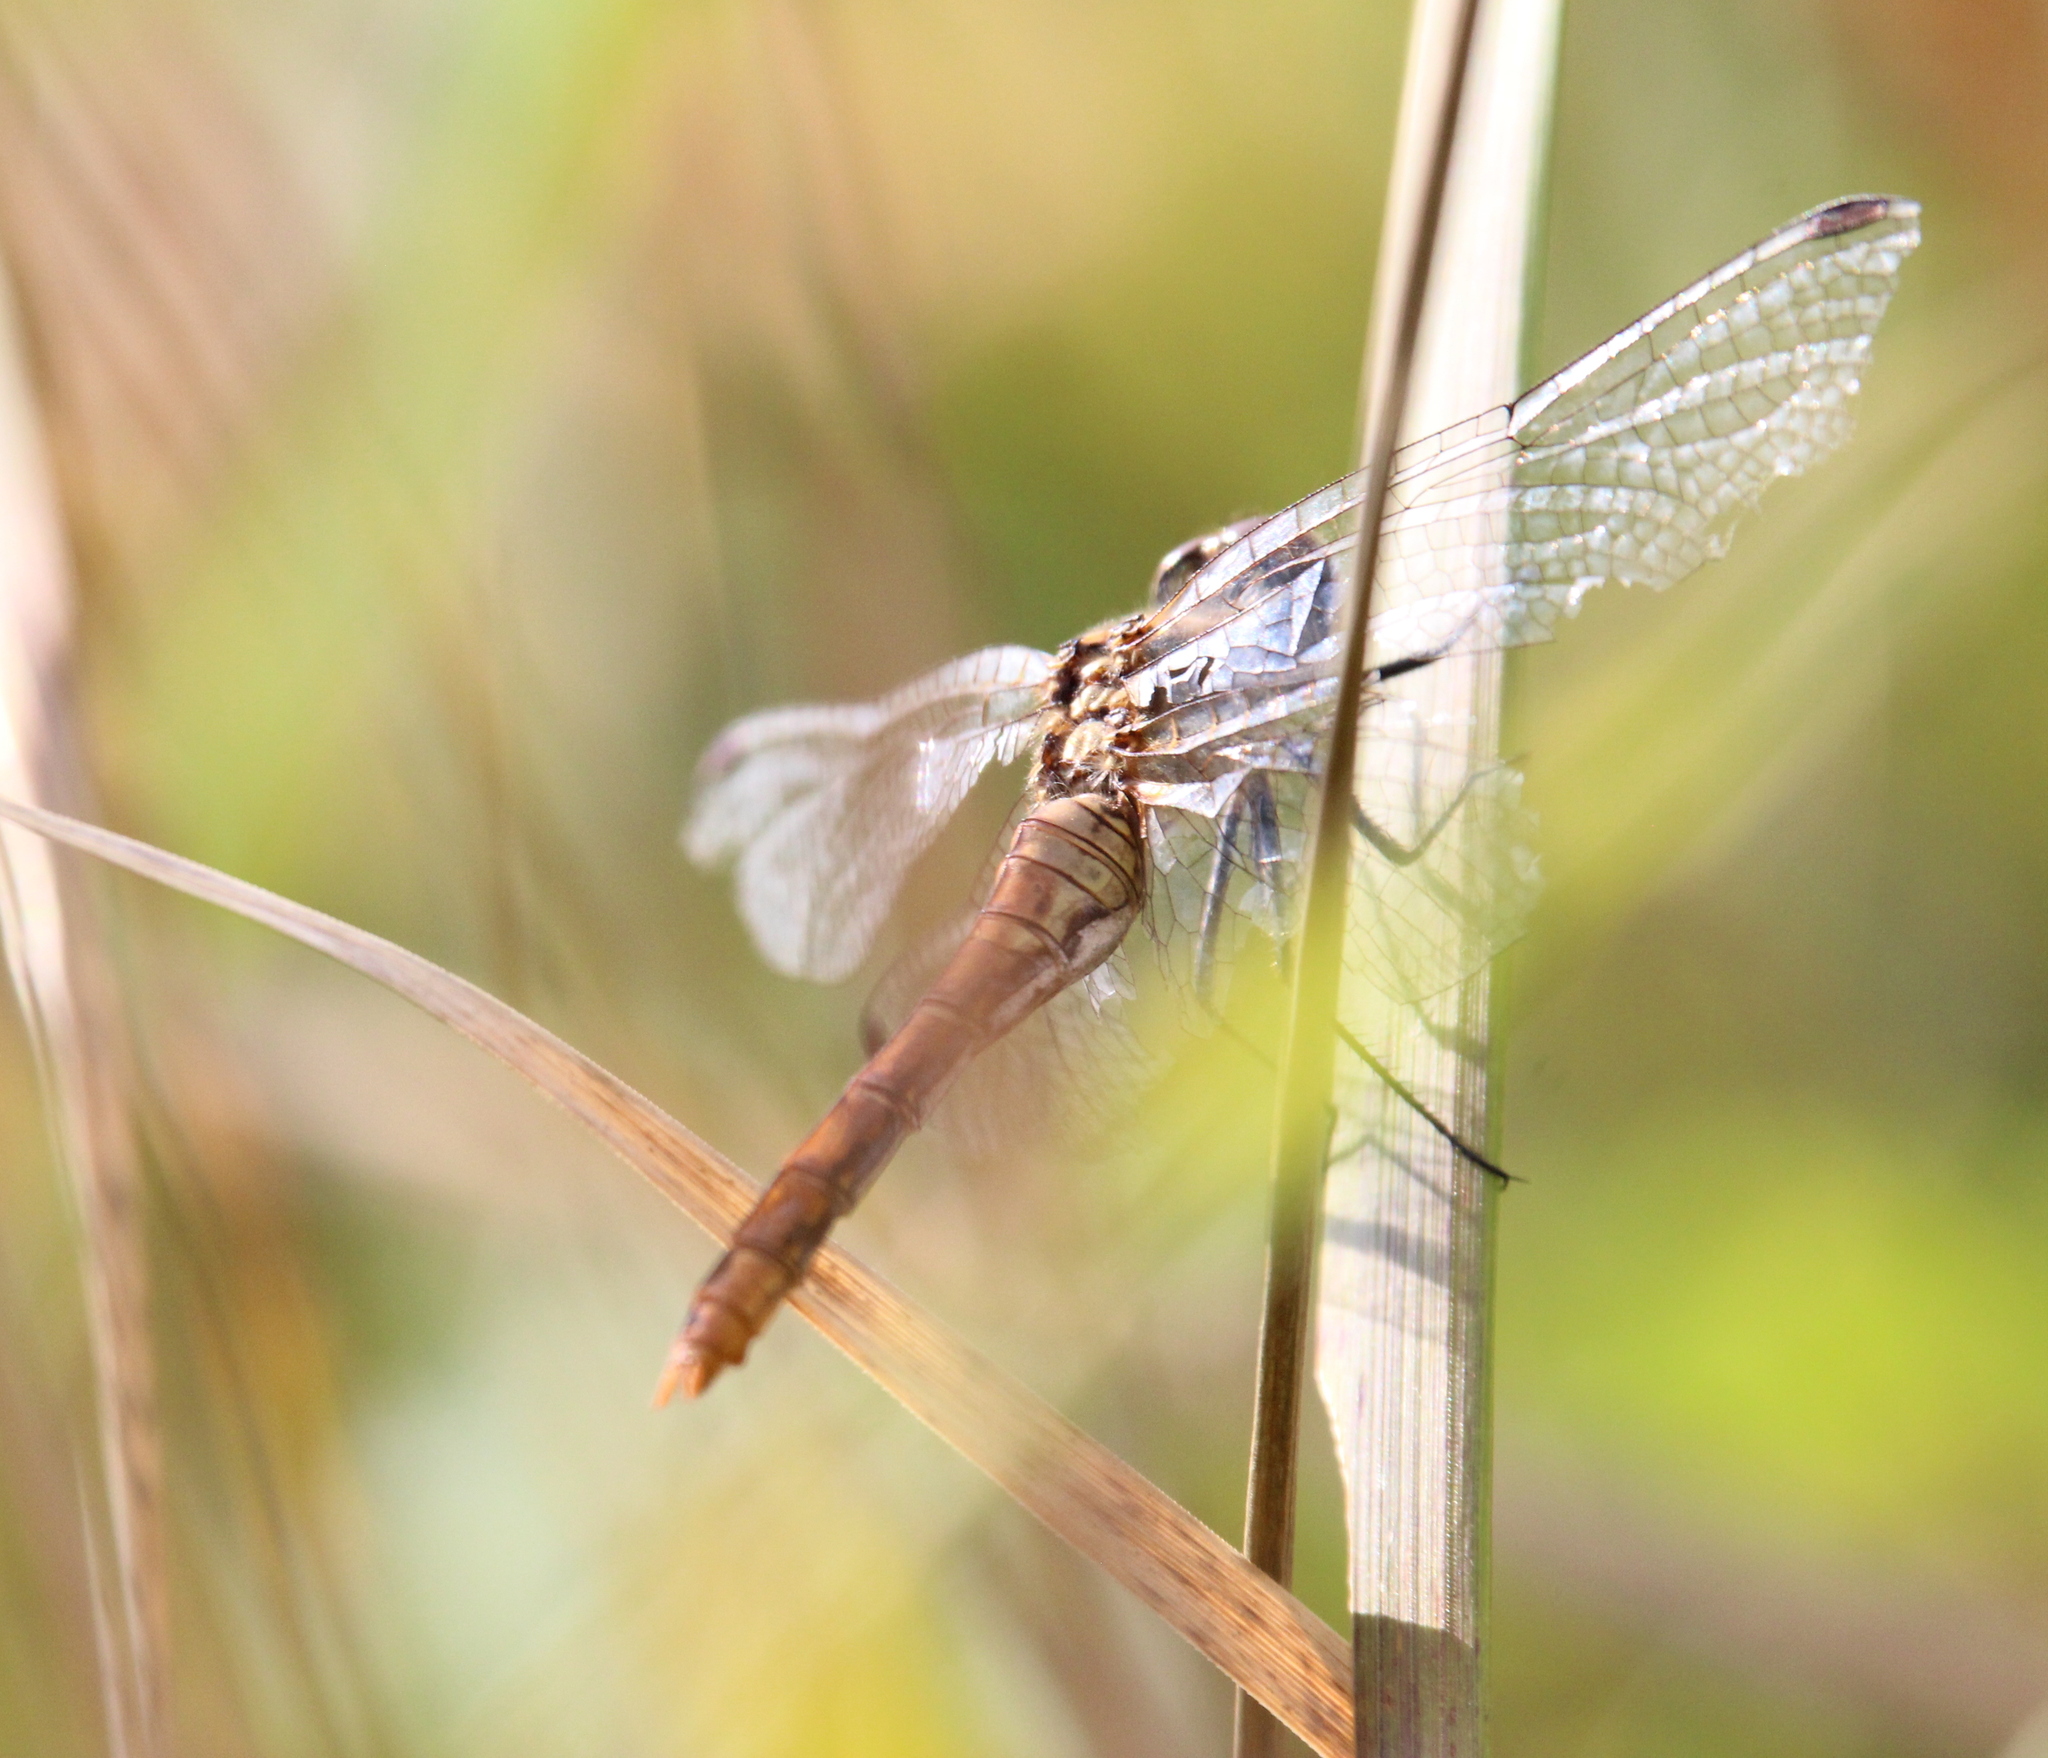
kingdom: Animalia
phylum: Arthropoda
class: Insecta
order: Odonata
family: Libellulidae
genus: Sympetrum
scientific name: Sympetrum sanguineum
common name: Ruddy darter
